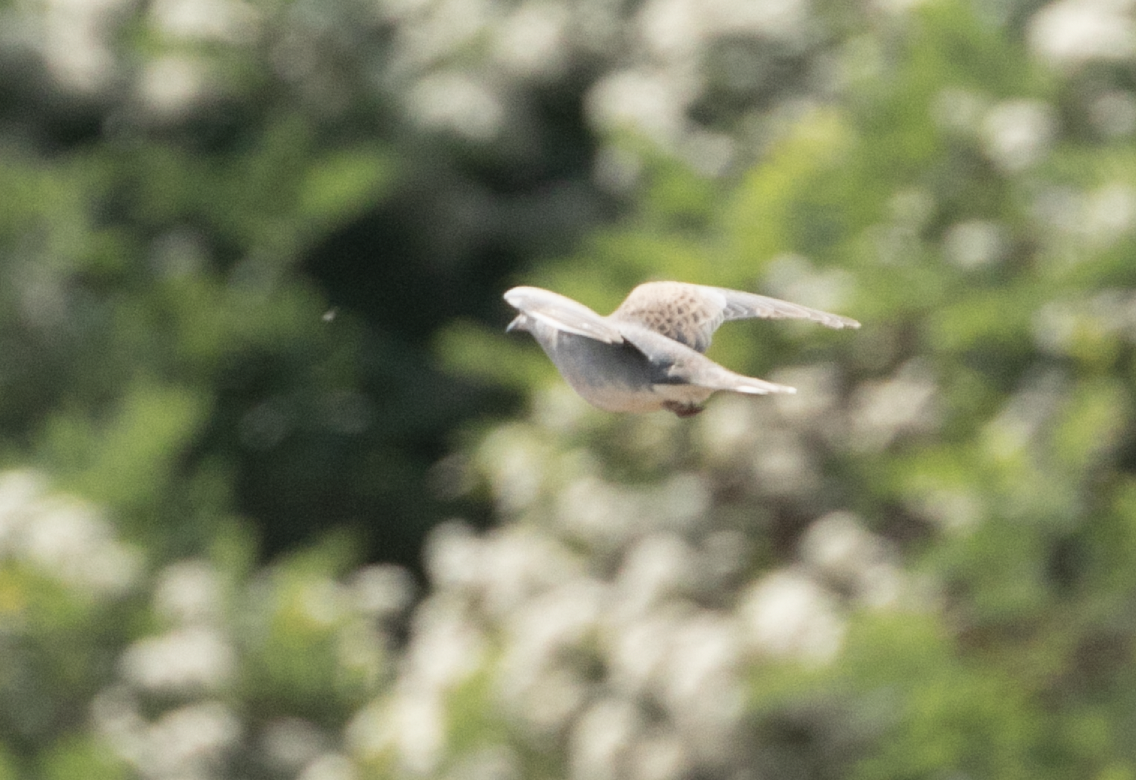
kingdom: Animalia
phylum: Chordata
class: Aves
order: Columbiformes
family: Columbidae
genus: Streptopelia
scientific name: Streptopelia turtur
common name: European turtle dove
